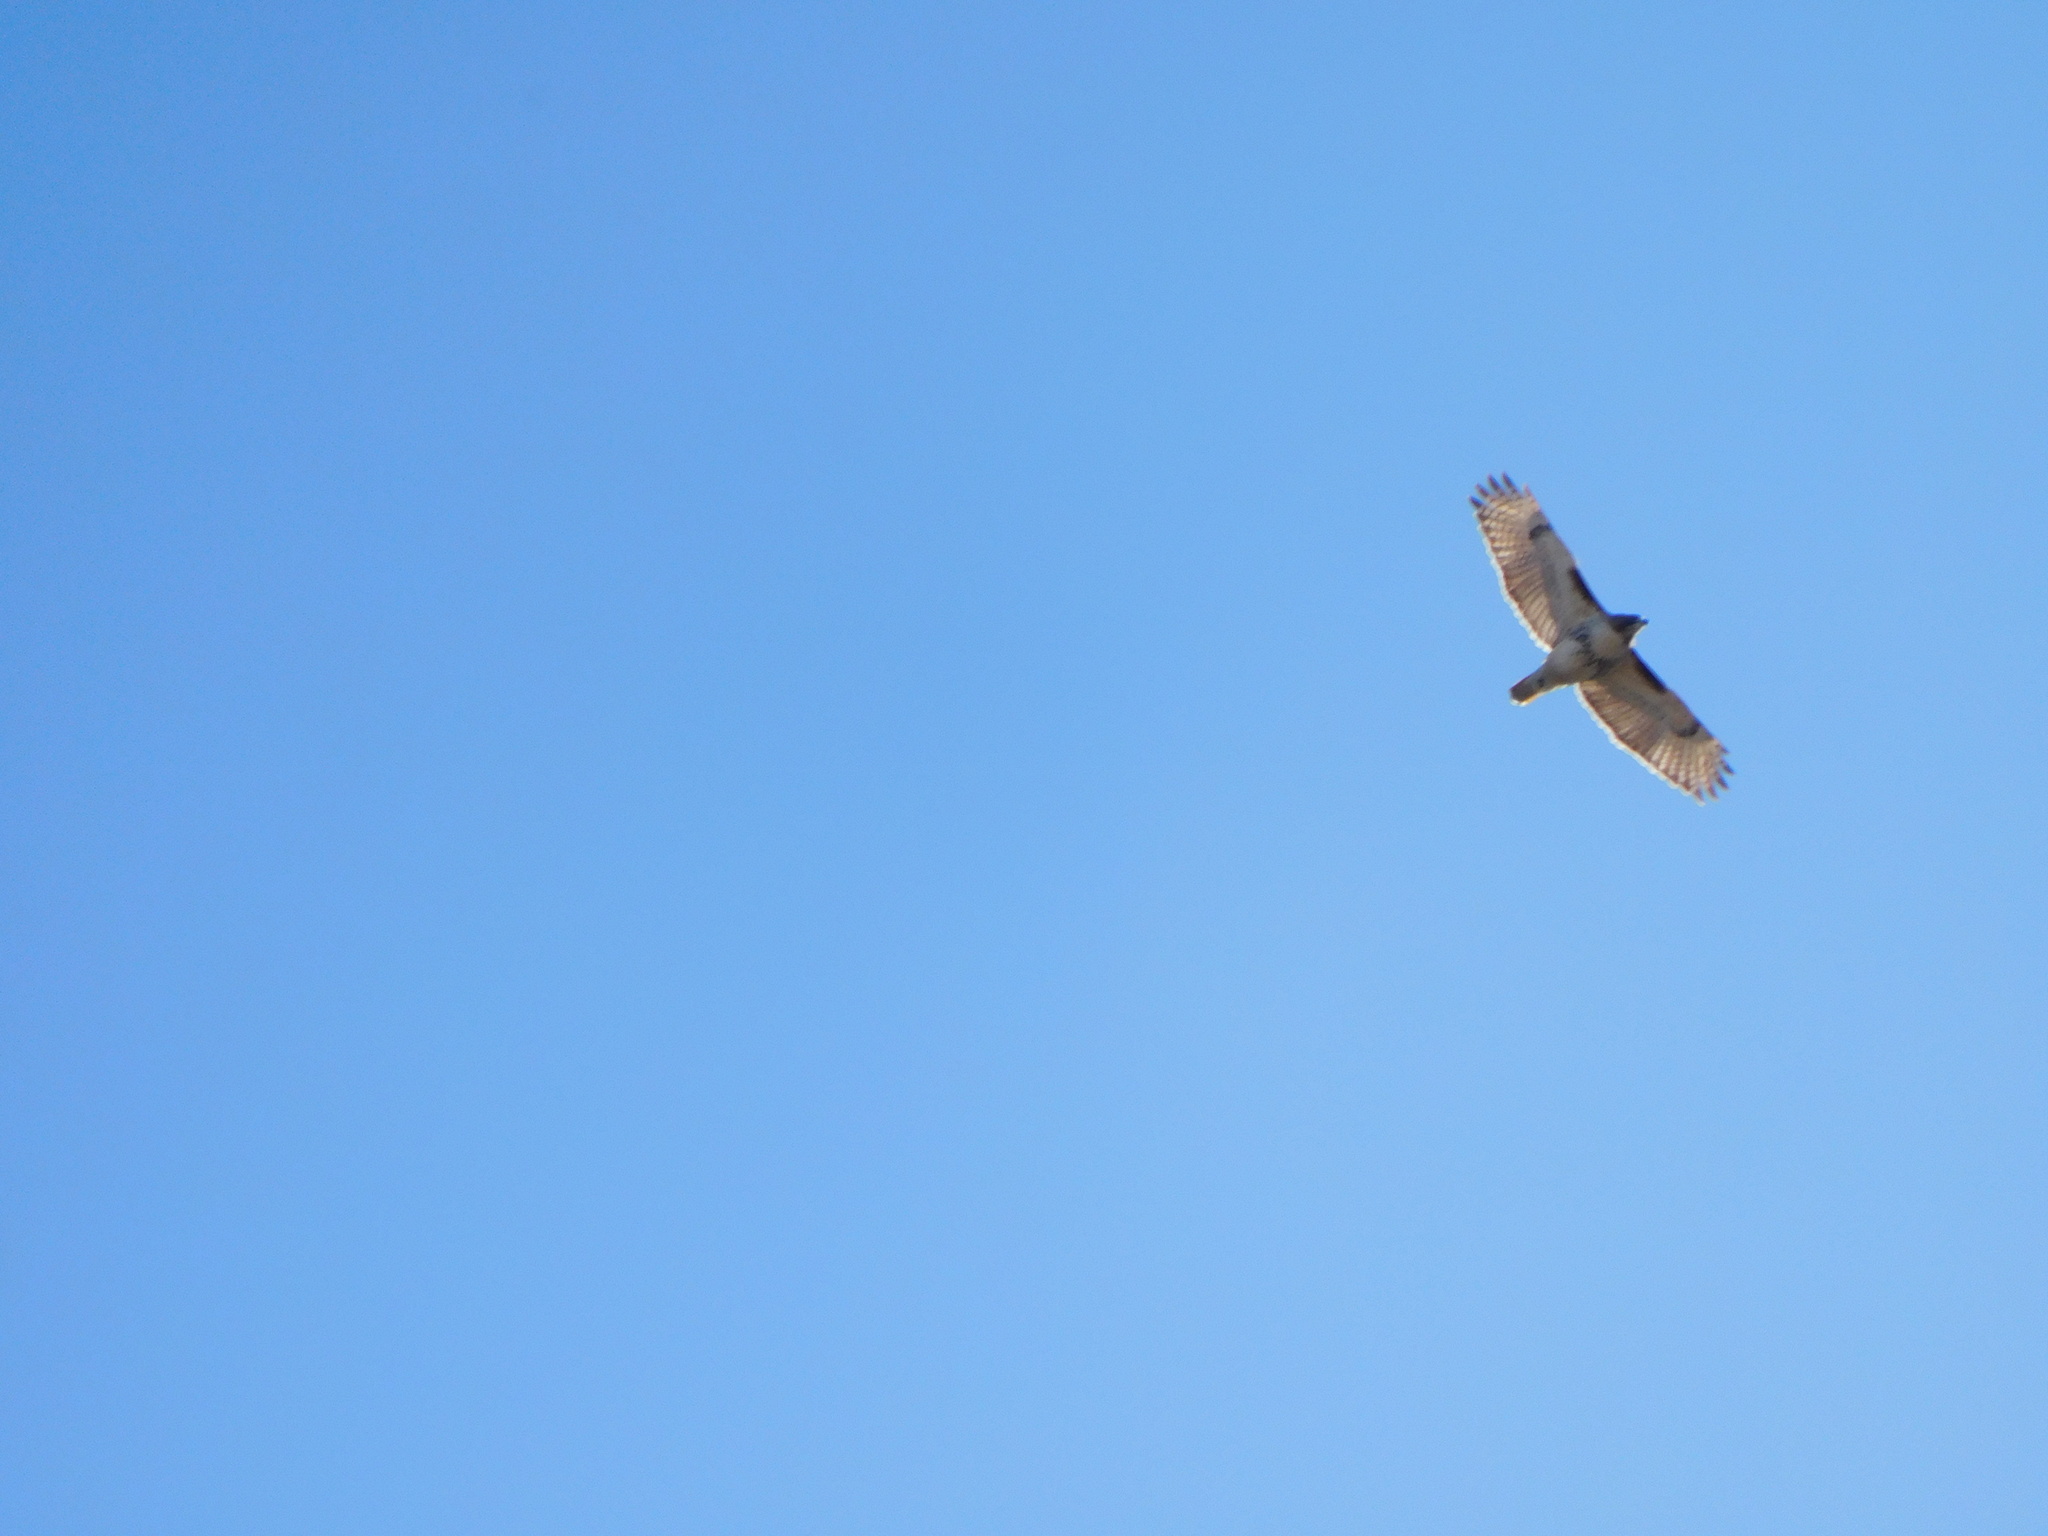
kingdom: Animalia
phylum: Chordata
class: Aves
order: Accipitriformes
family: Accipitridae
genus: Buteo
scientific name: Buteo jamaicensis
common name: Red-tailed hawk
